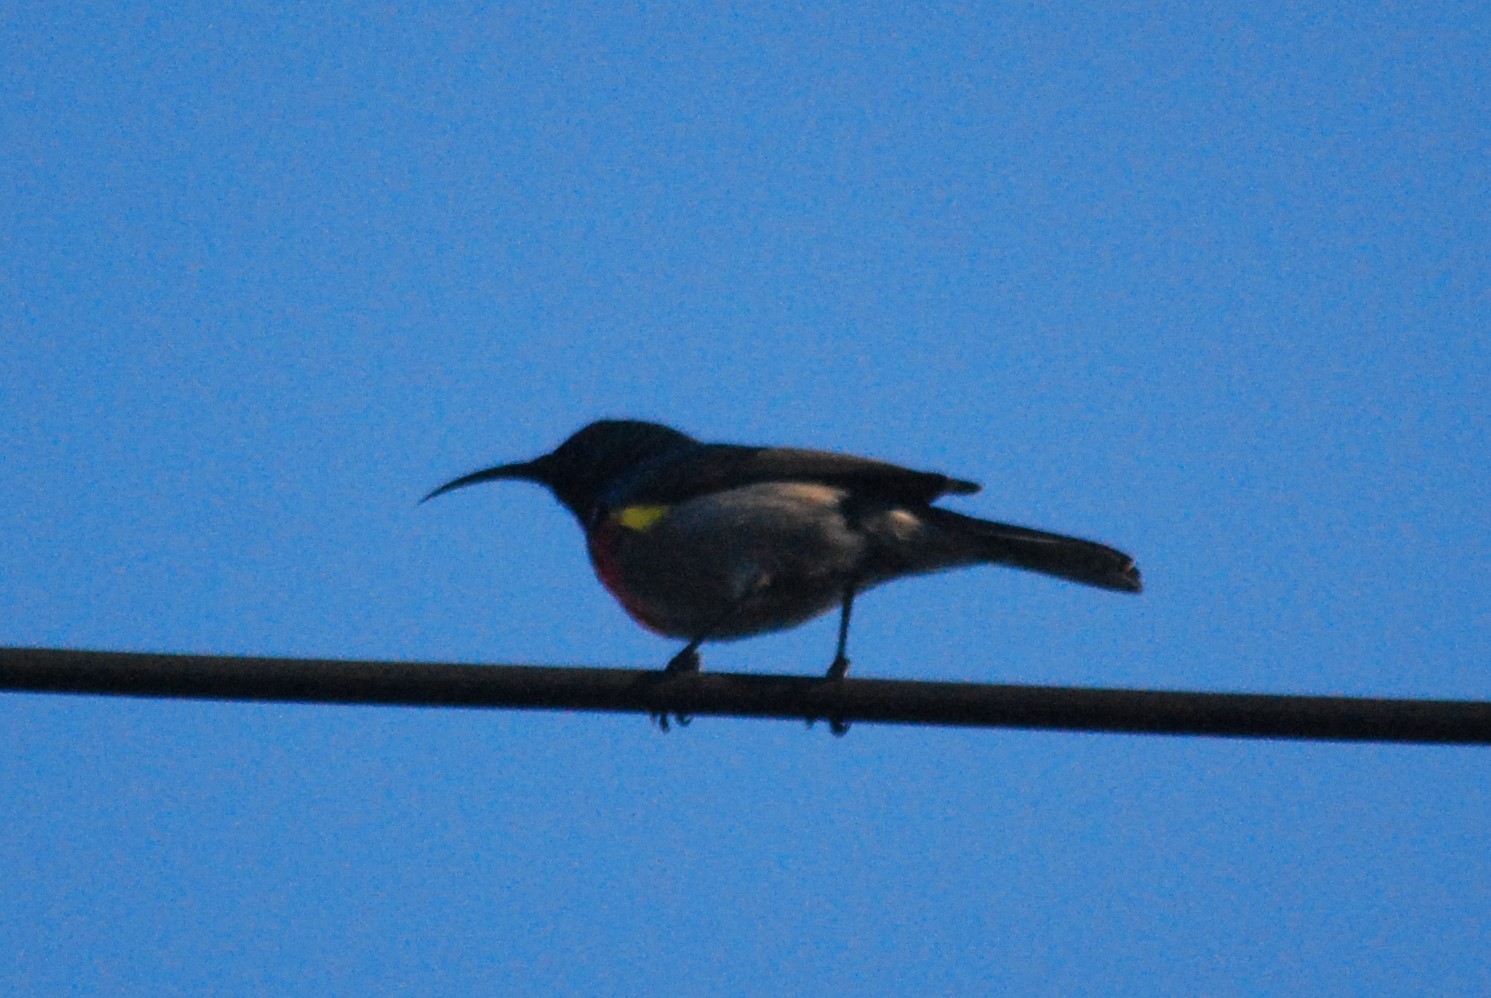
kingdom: Animalia
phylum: Chordata
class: Aves
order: Passeriformes
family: Nectariniidae
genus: Cinnyris
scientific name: Cinnyris chalybeus
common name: Southern double-collared sunbird
